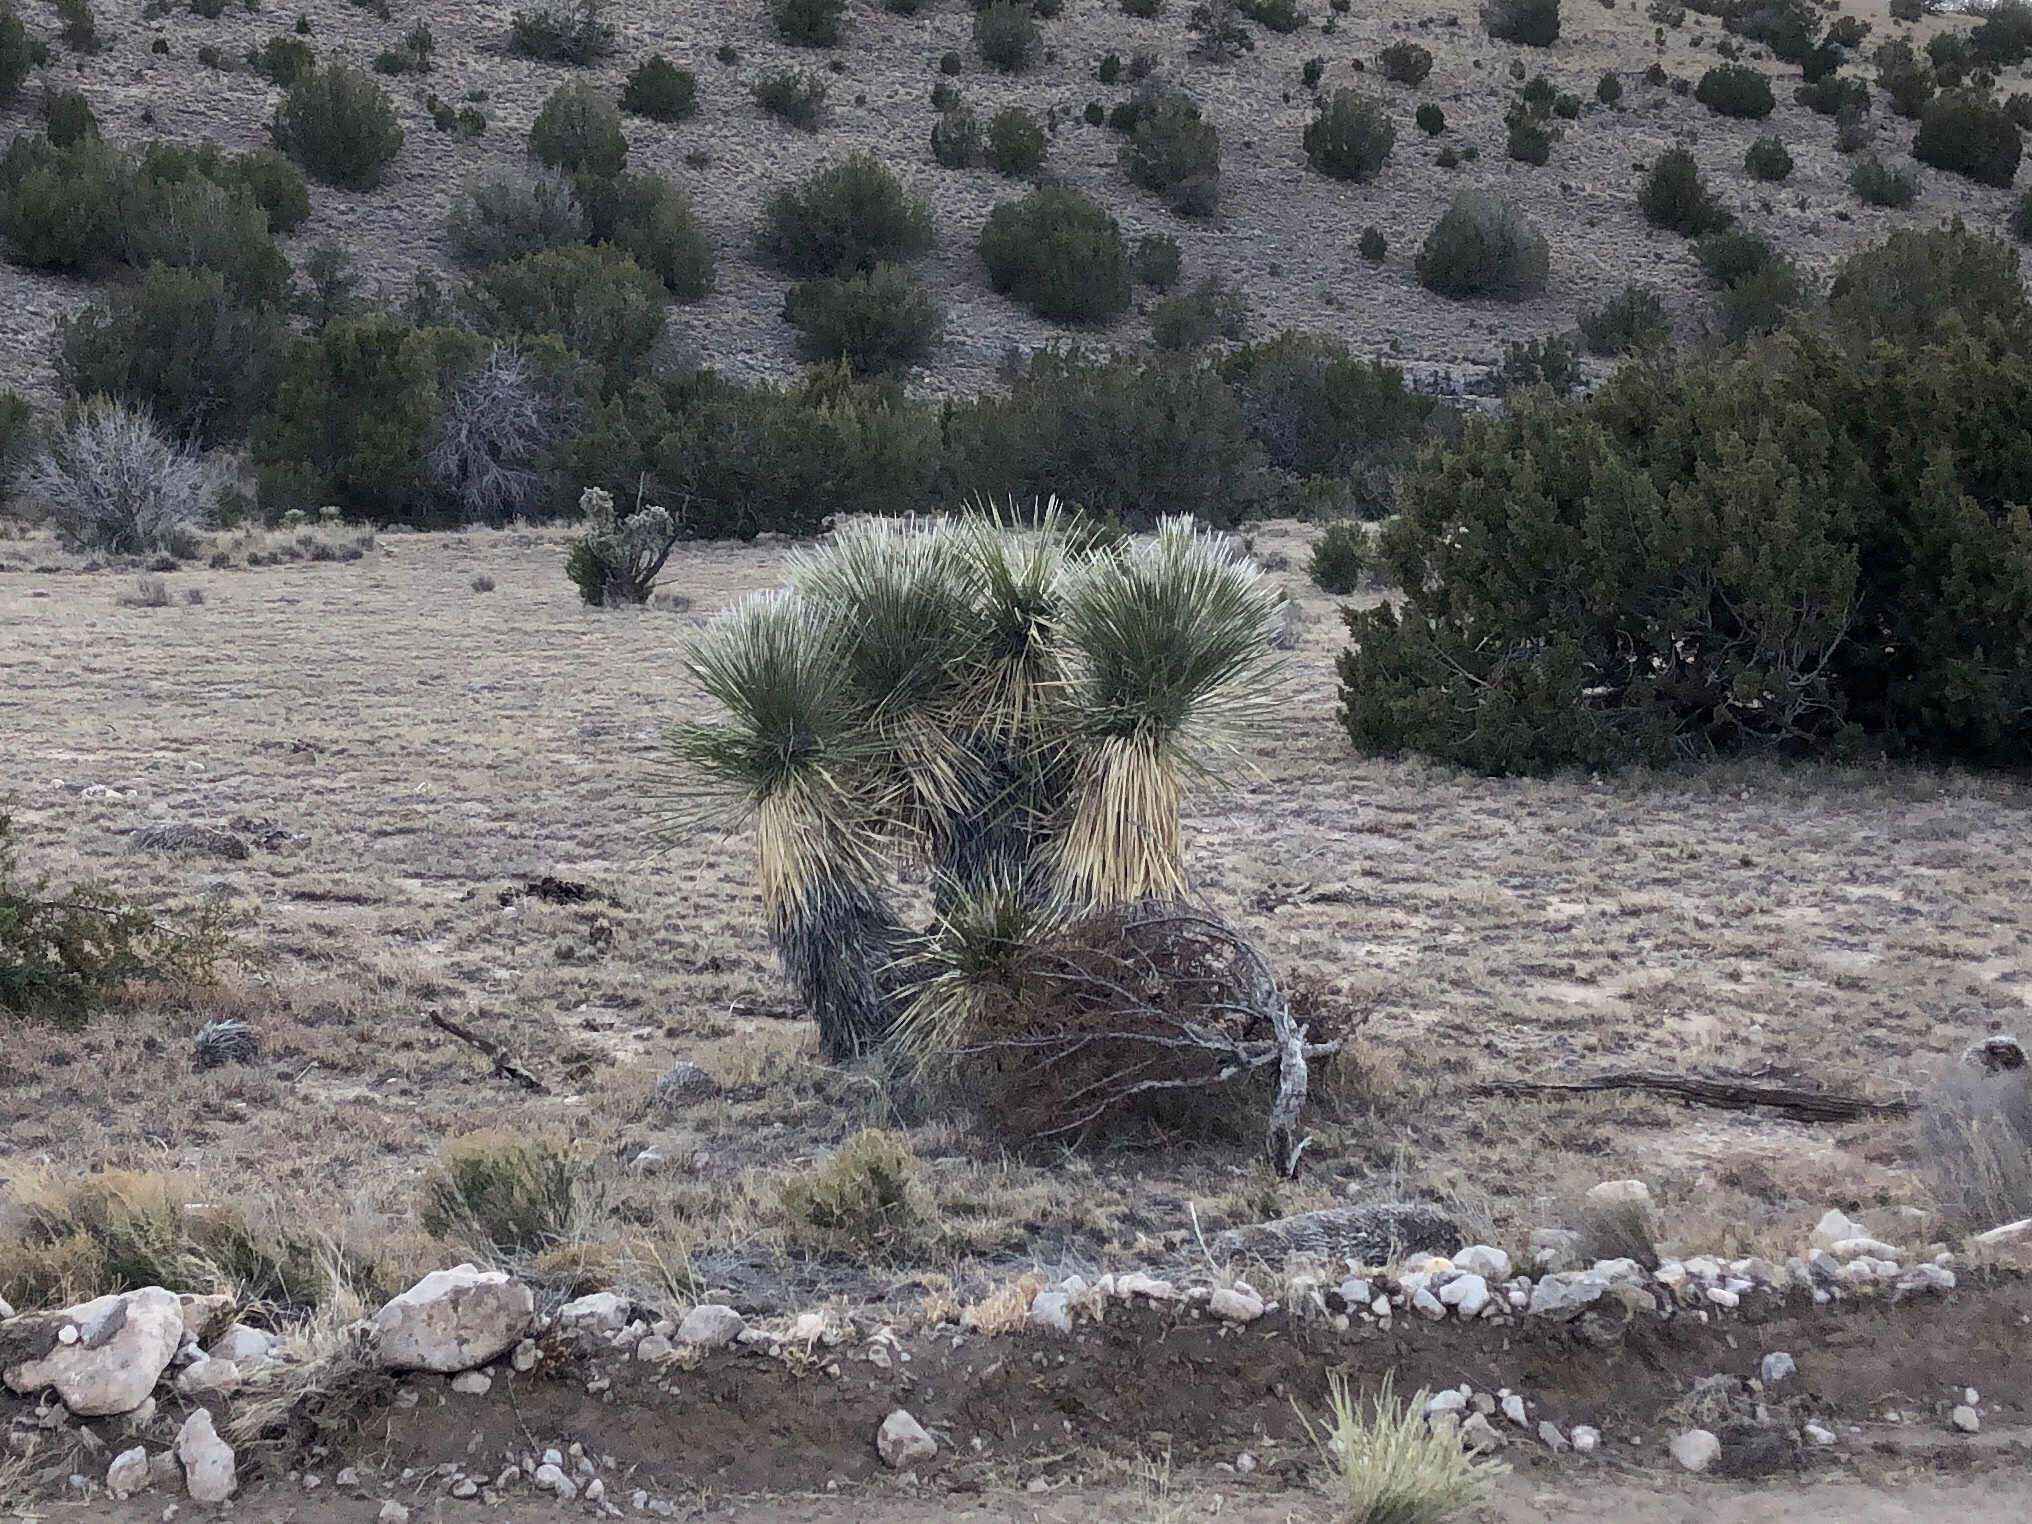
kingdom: Plantae
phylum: Tracheophyta
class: Liliopsida
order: Asparagales
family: Asparagaceae
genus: Yucca
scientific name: Yucca elata
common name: Palmella
